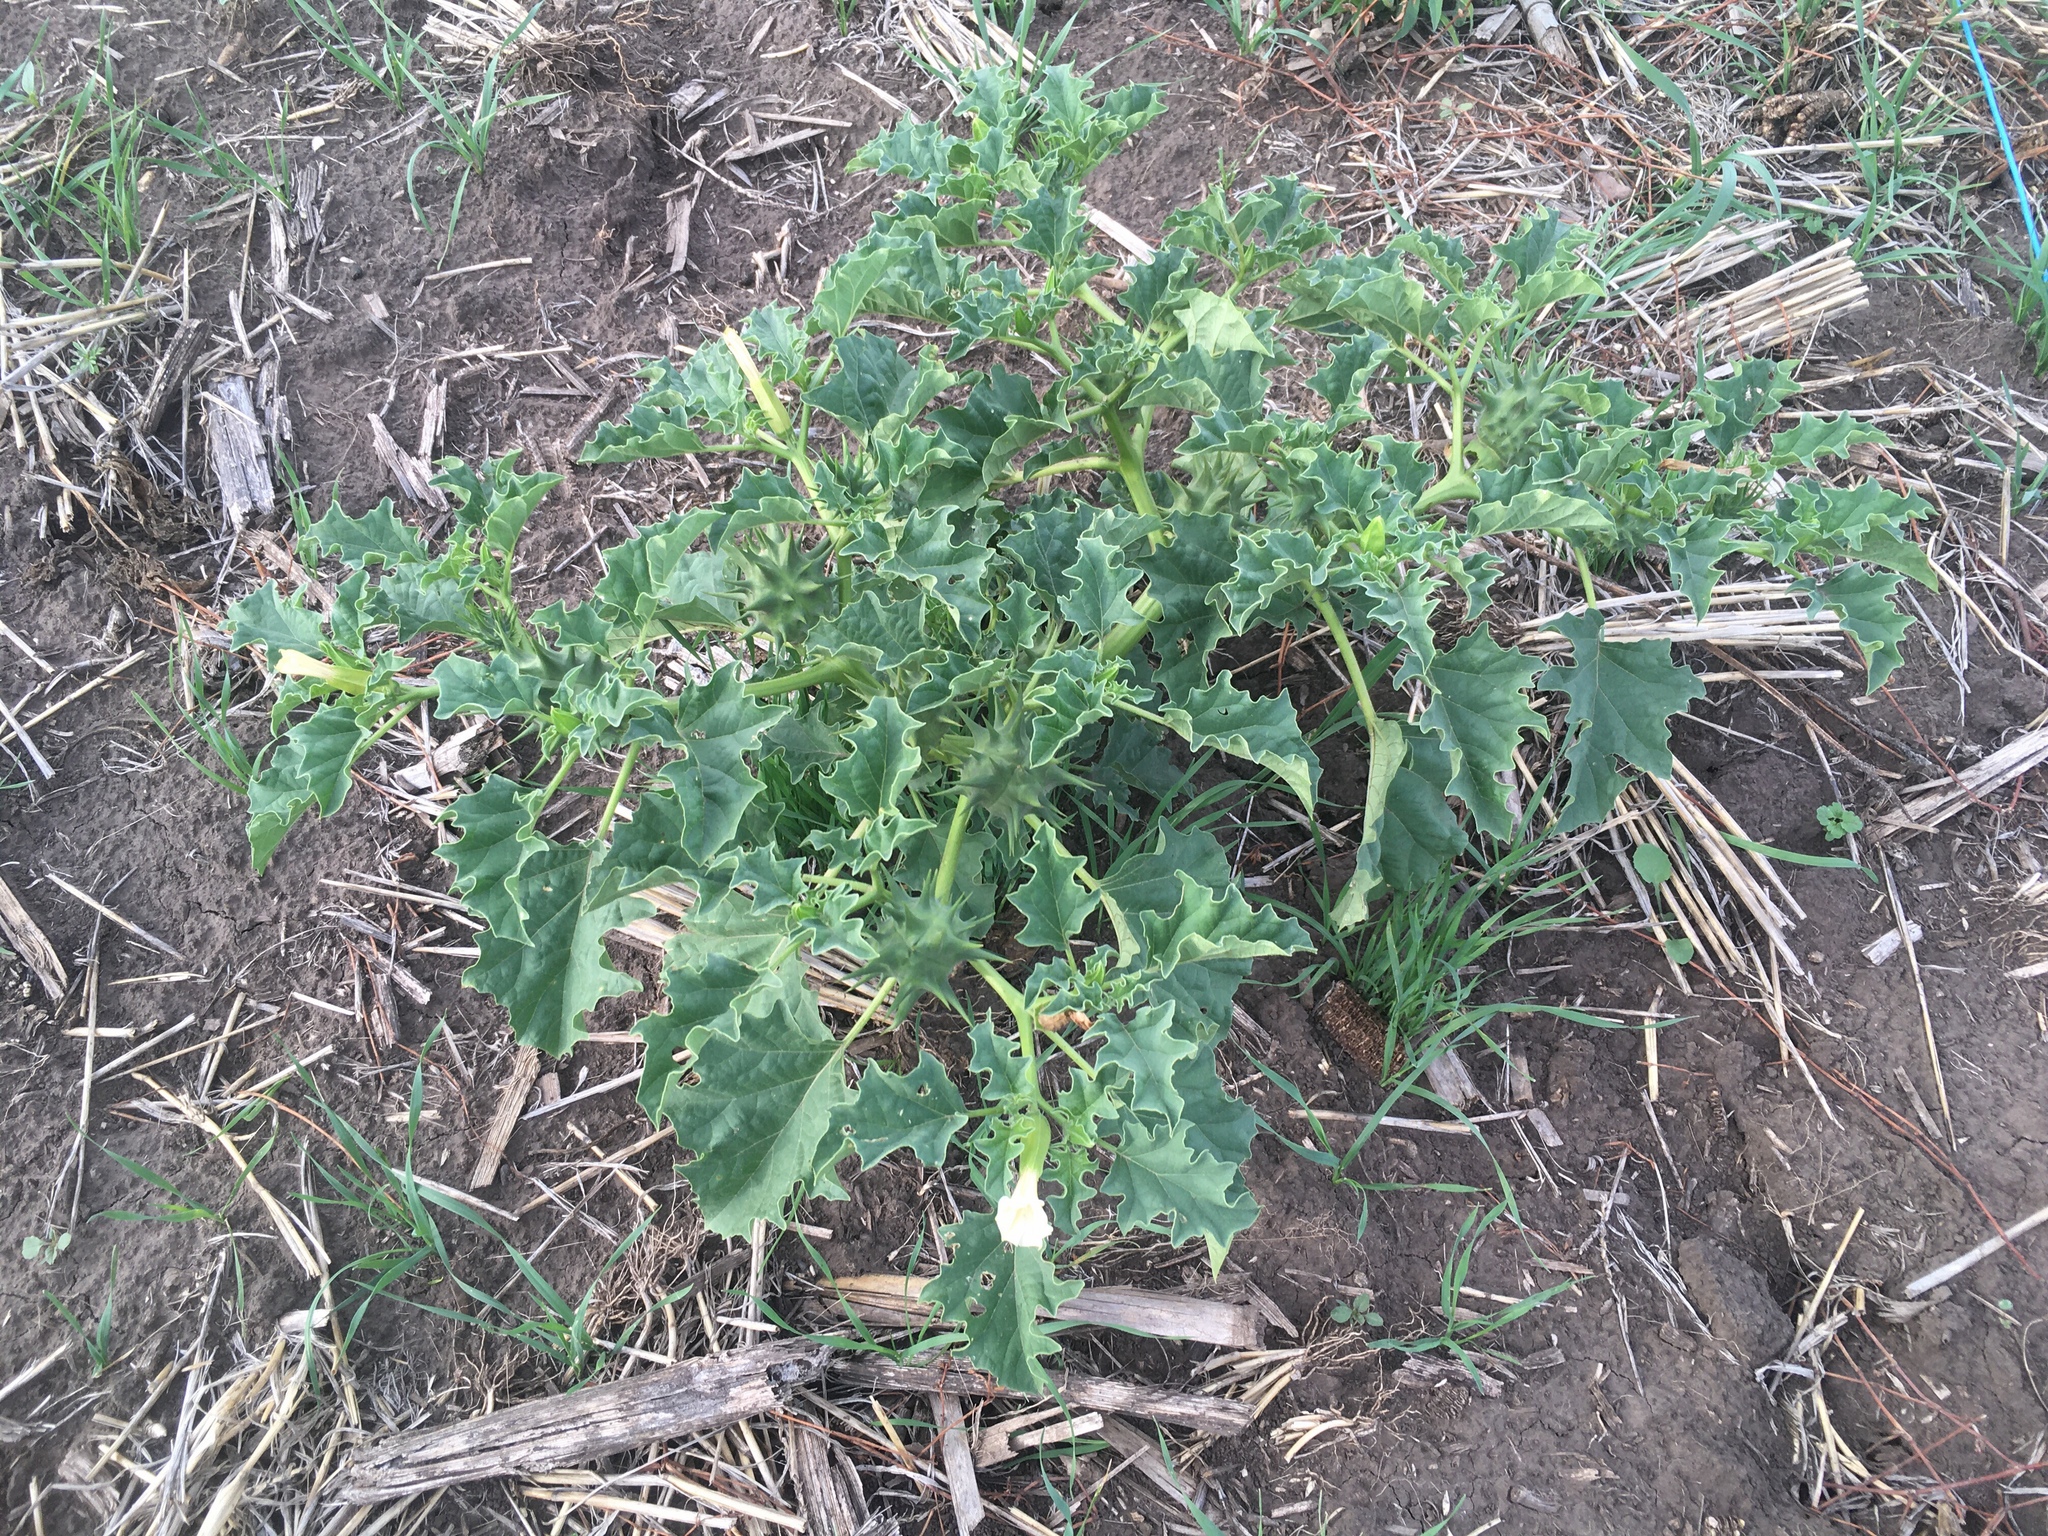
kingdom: Plantae
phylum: Tracheophyta
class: Magnoliopsida
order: Solanales
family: Solanaceae
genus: Datura
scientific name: Datura ferox
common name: Angel's-trumpets
